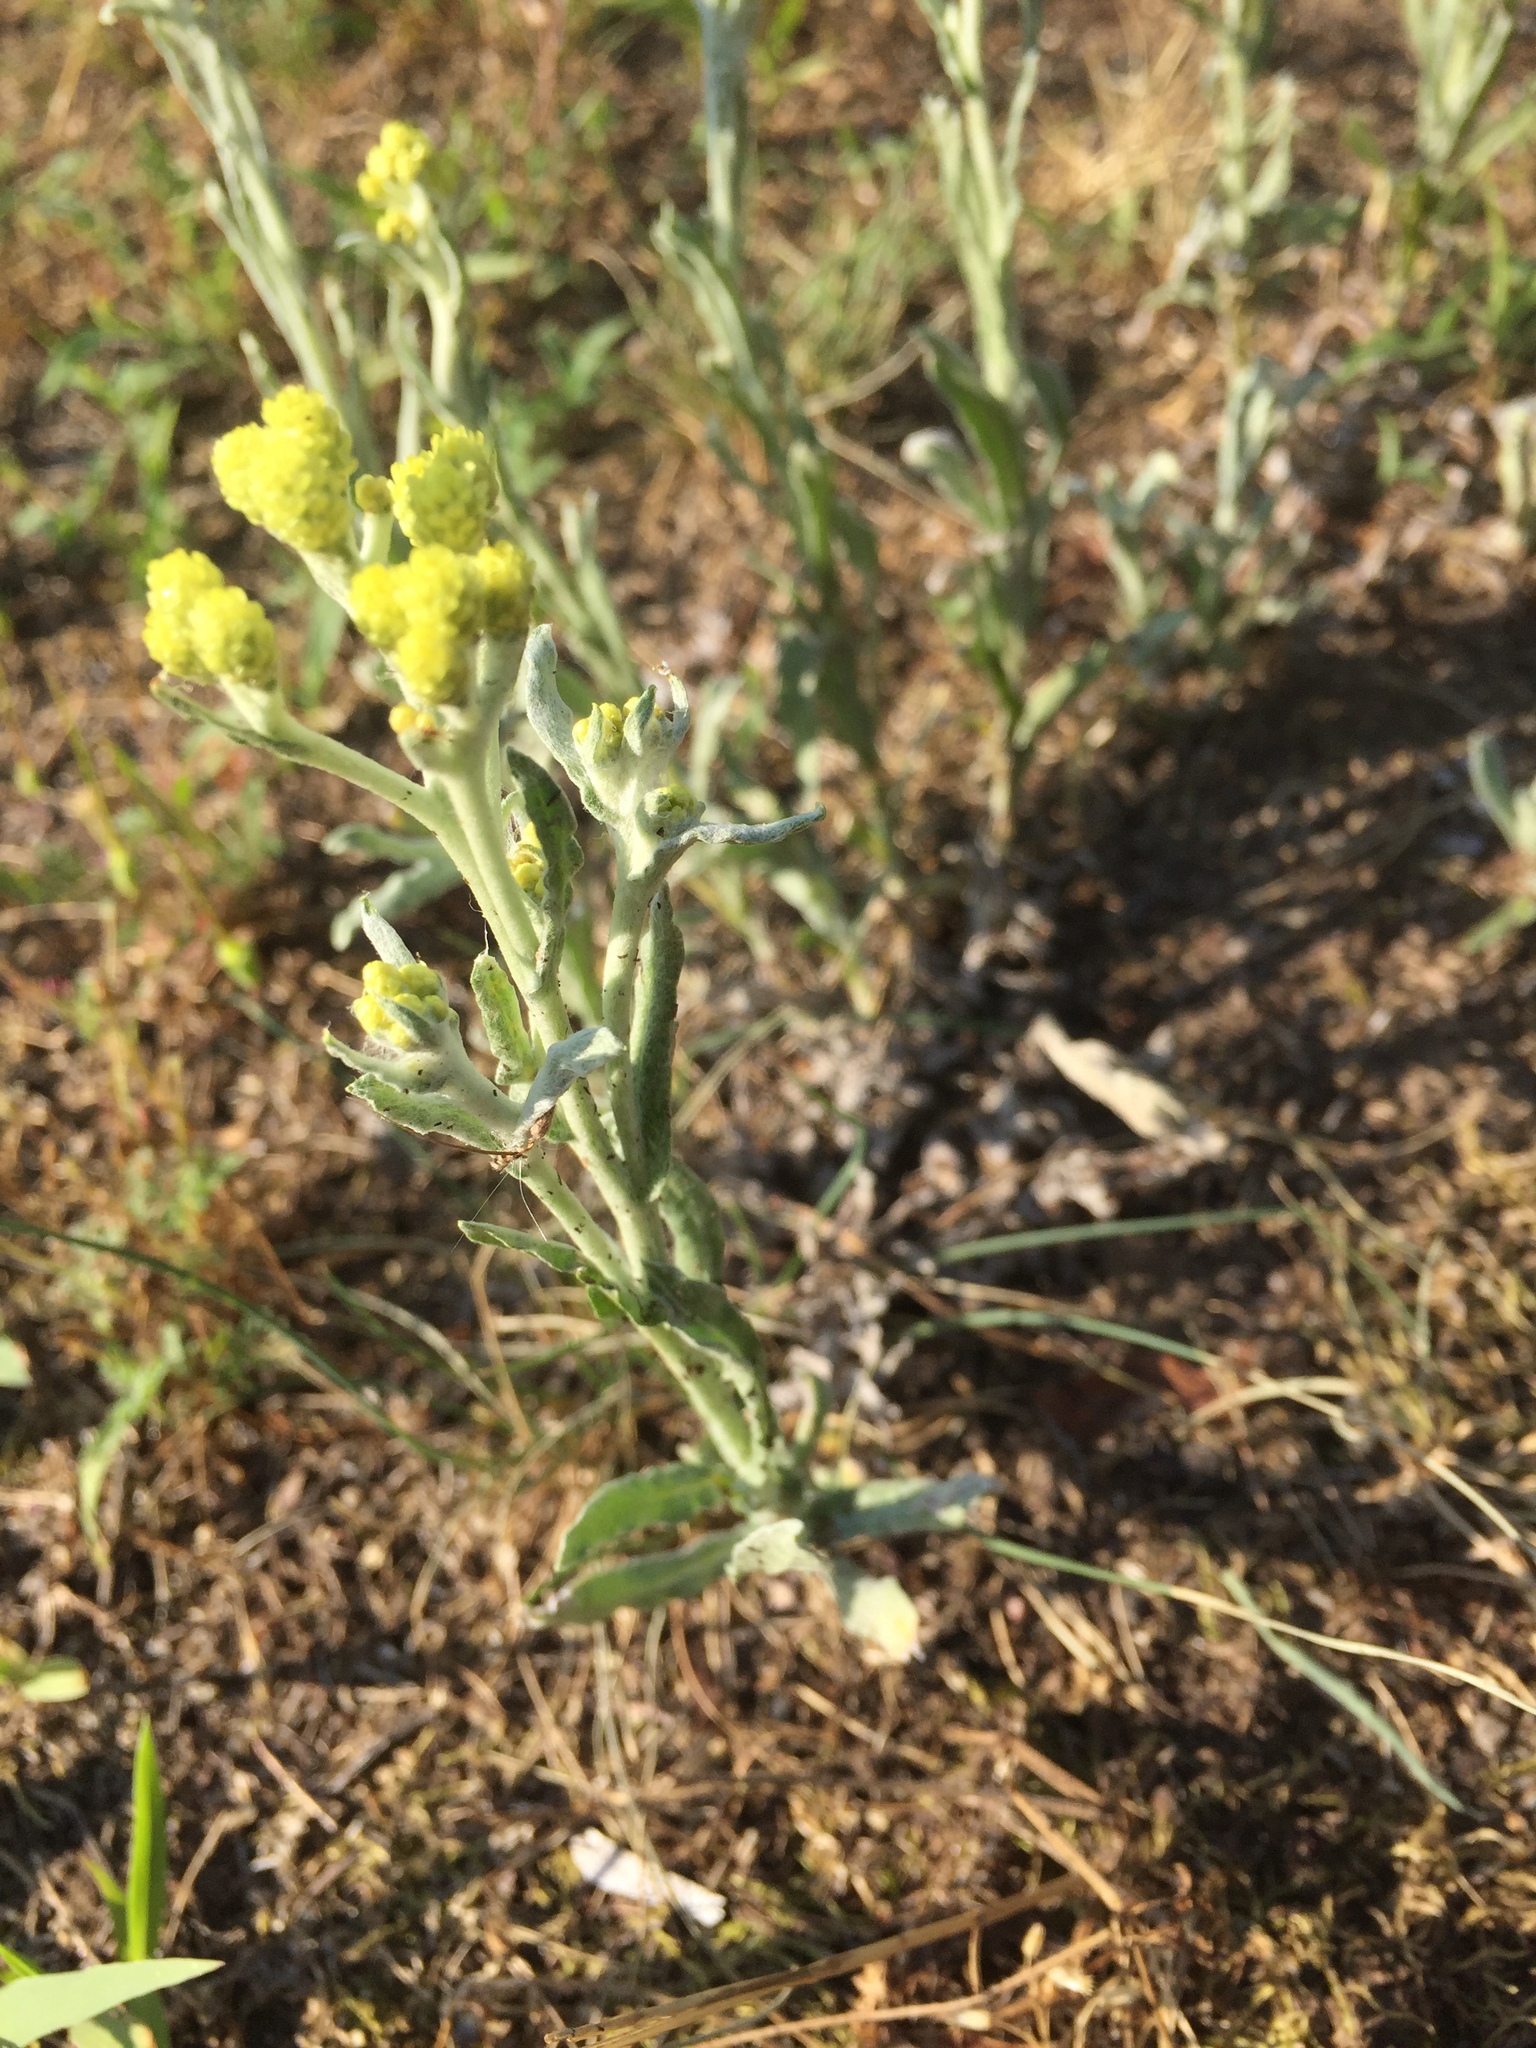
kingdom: Plantae
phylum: Tracheophyta
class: Magnoliopsida
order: Asterales
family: Asteraceae
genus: Helichrysum
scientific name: Helichrysum arenarium
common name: Strawflower
